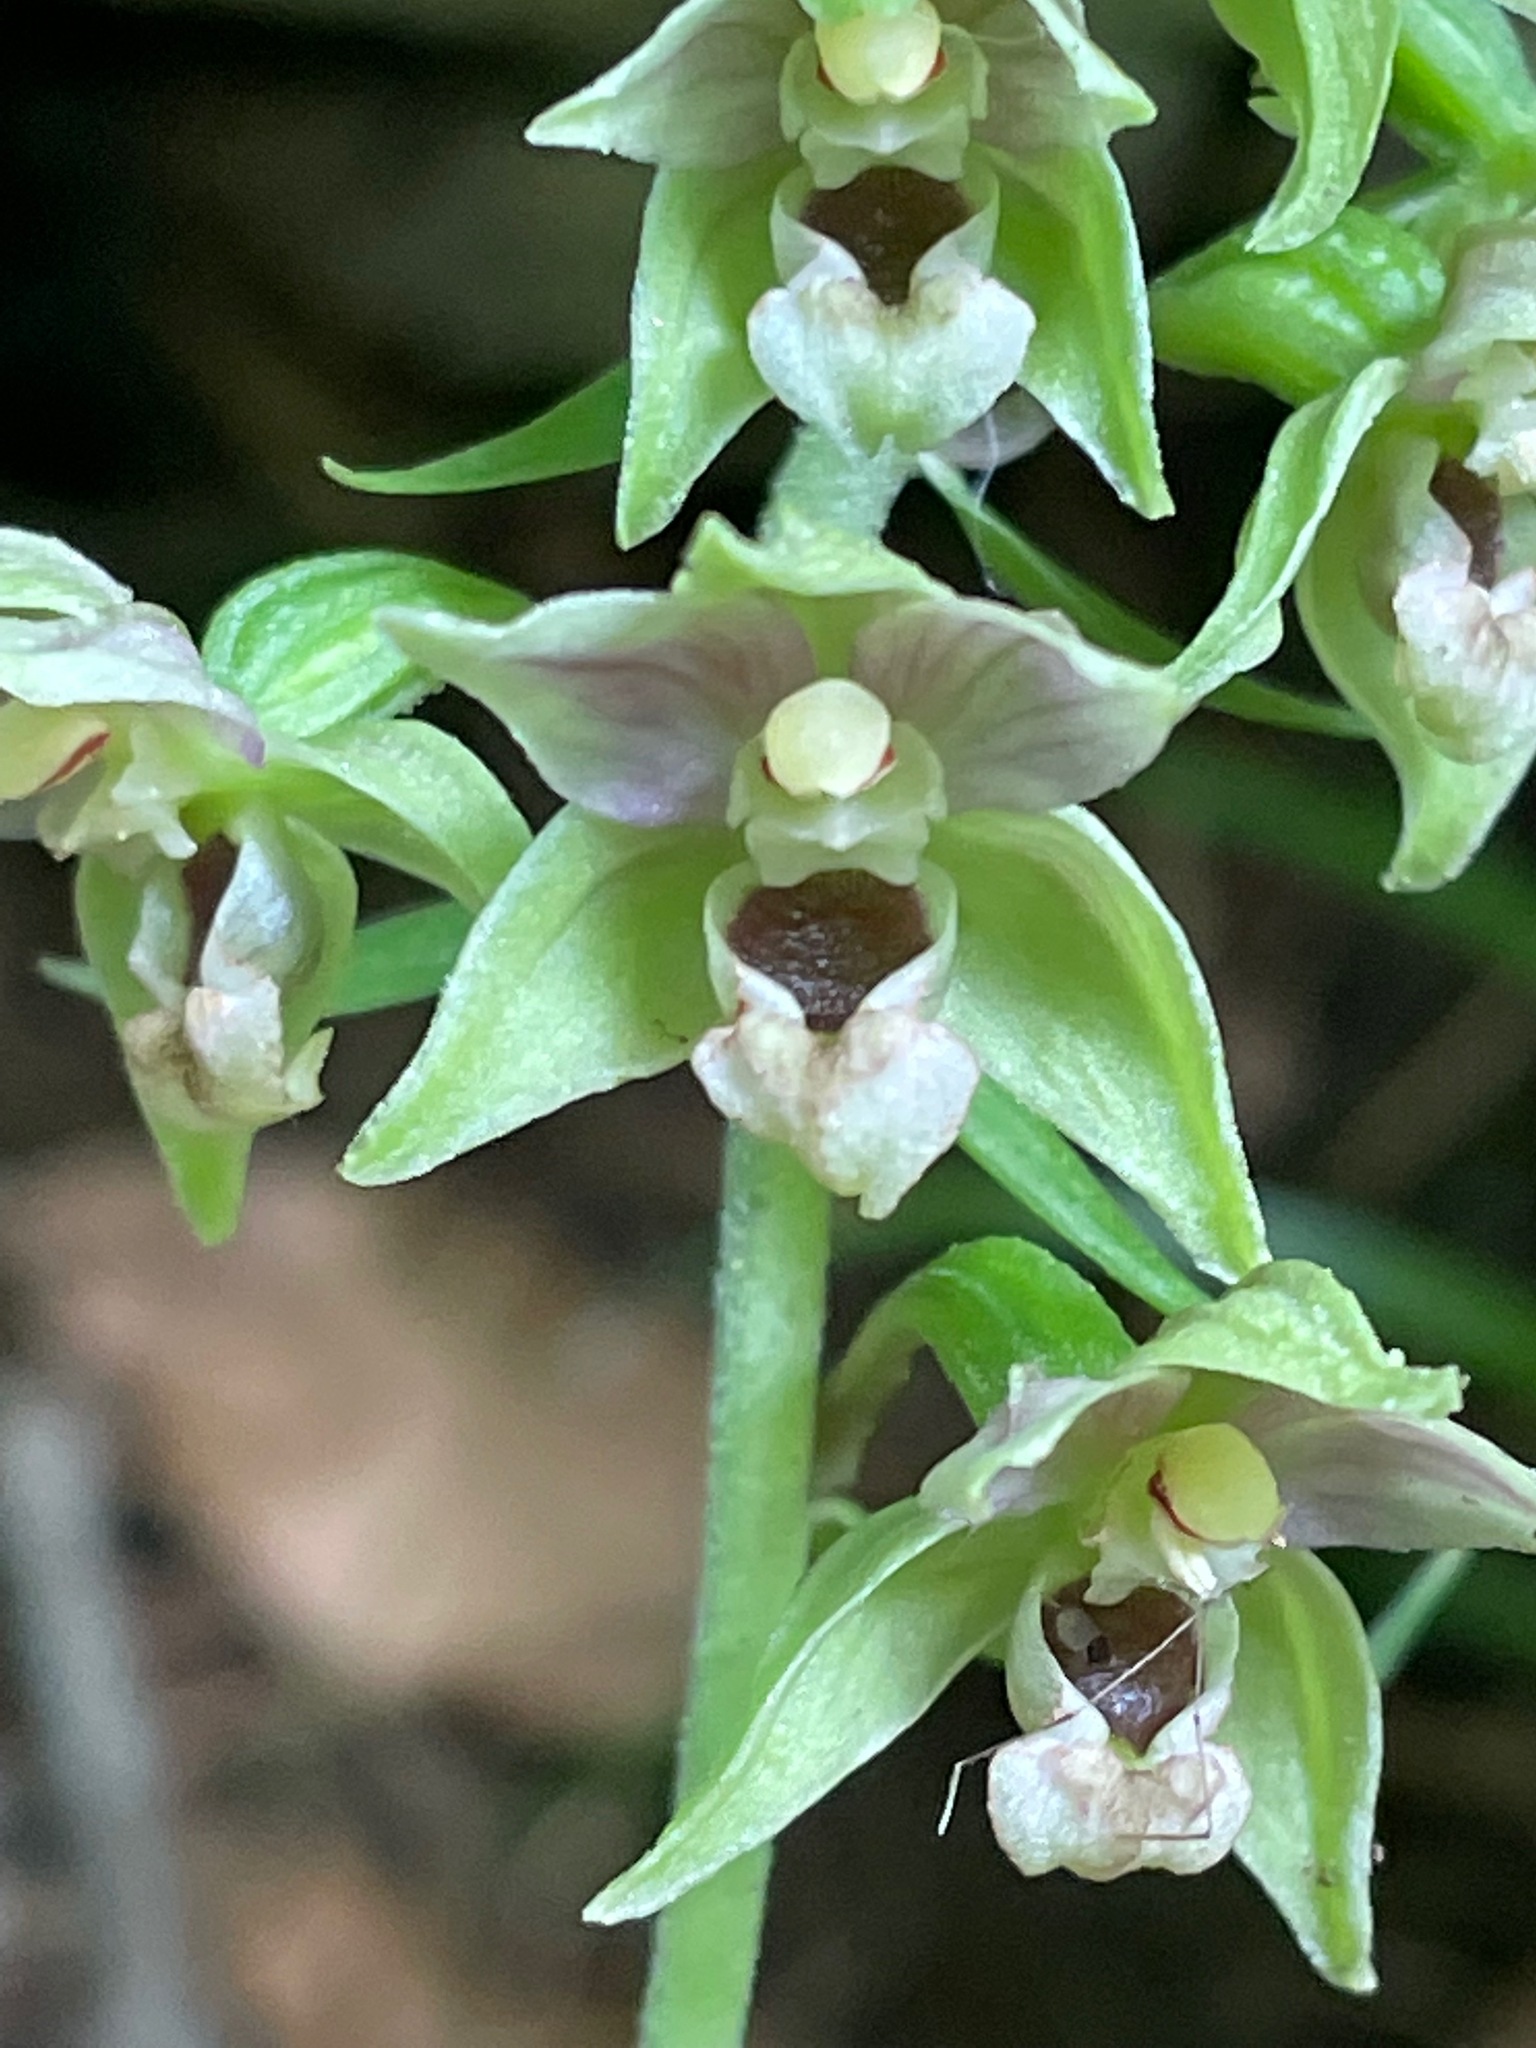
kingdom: Plantae
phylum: Tracheophyta
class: Liliopsida
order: Asparagales
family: Orchidaceae
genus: Epipactis
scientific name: Epipactis helleborine
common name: Broad-leaved helleborine
